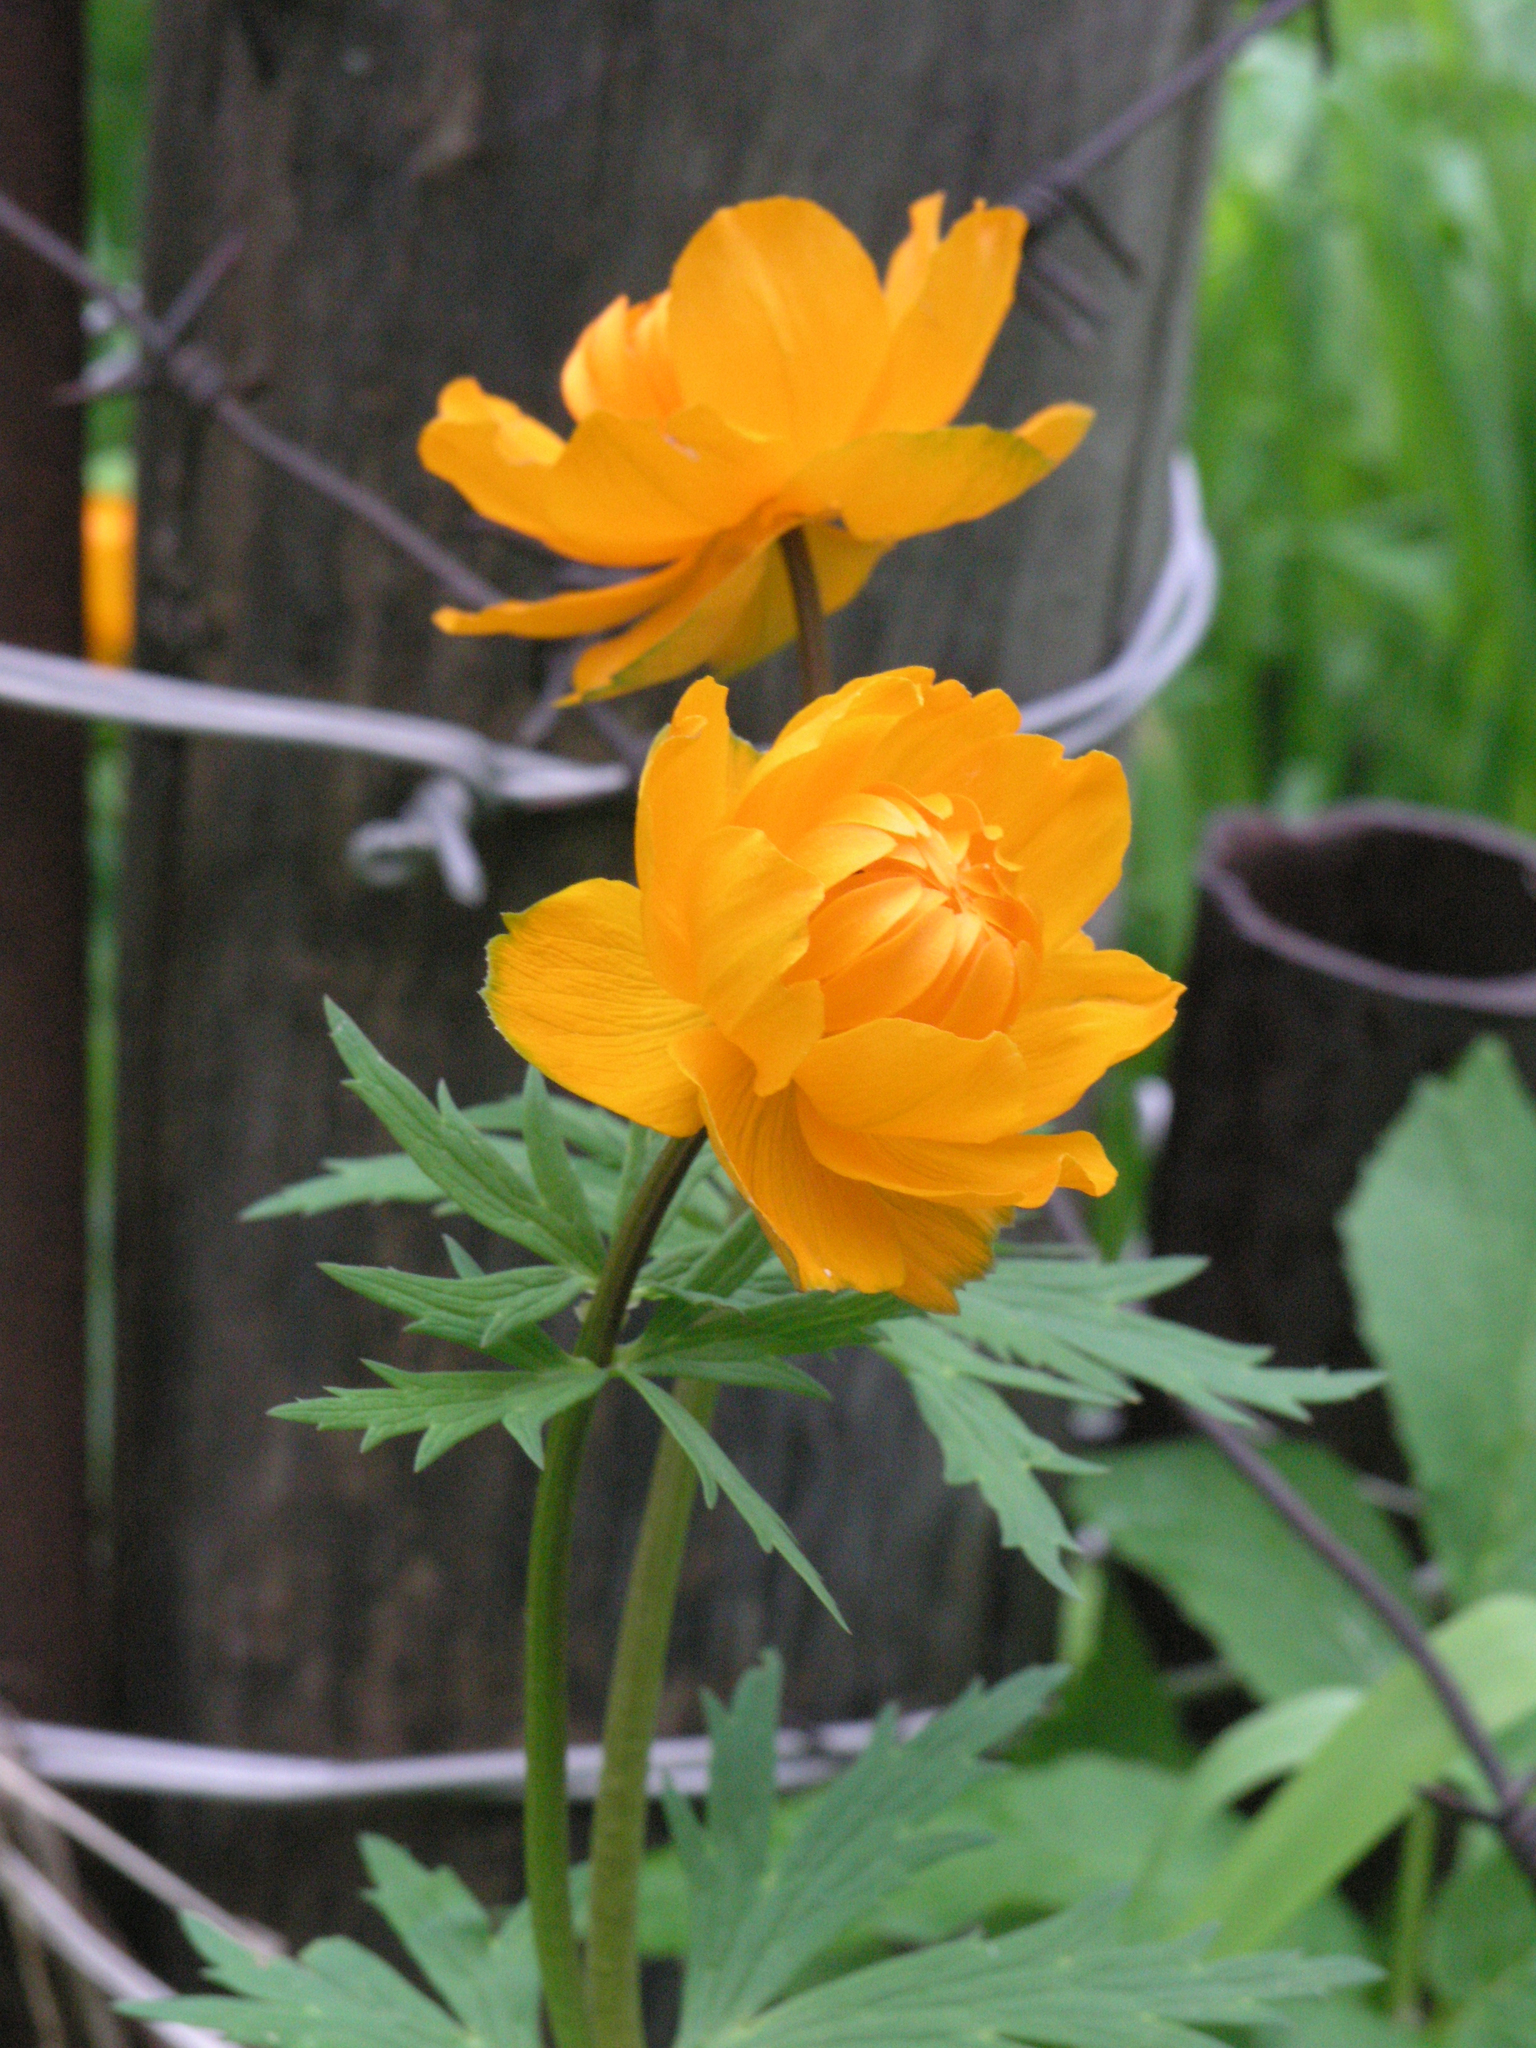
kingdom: Plantae
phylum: Tracheophyta
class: Magnoliopsida
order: Ranunculales
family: Ranunculaceae
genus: Trollius
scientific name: Trollius asiaticus
